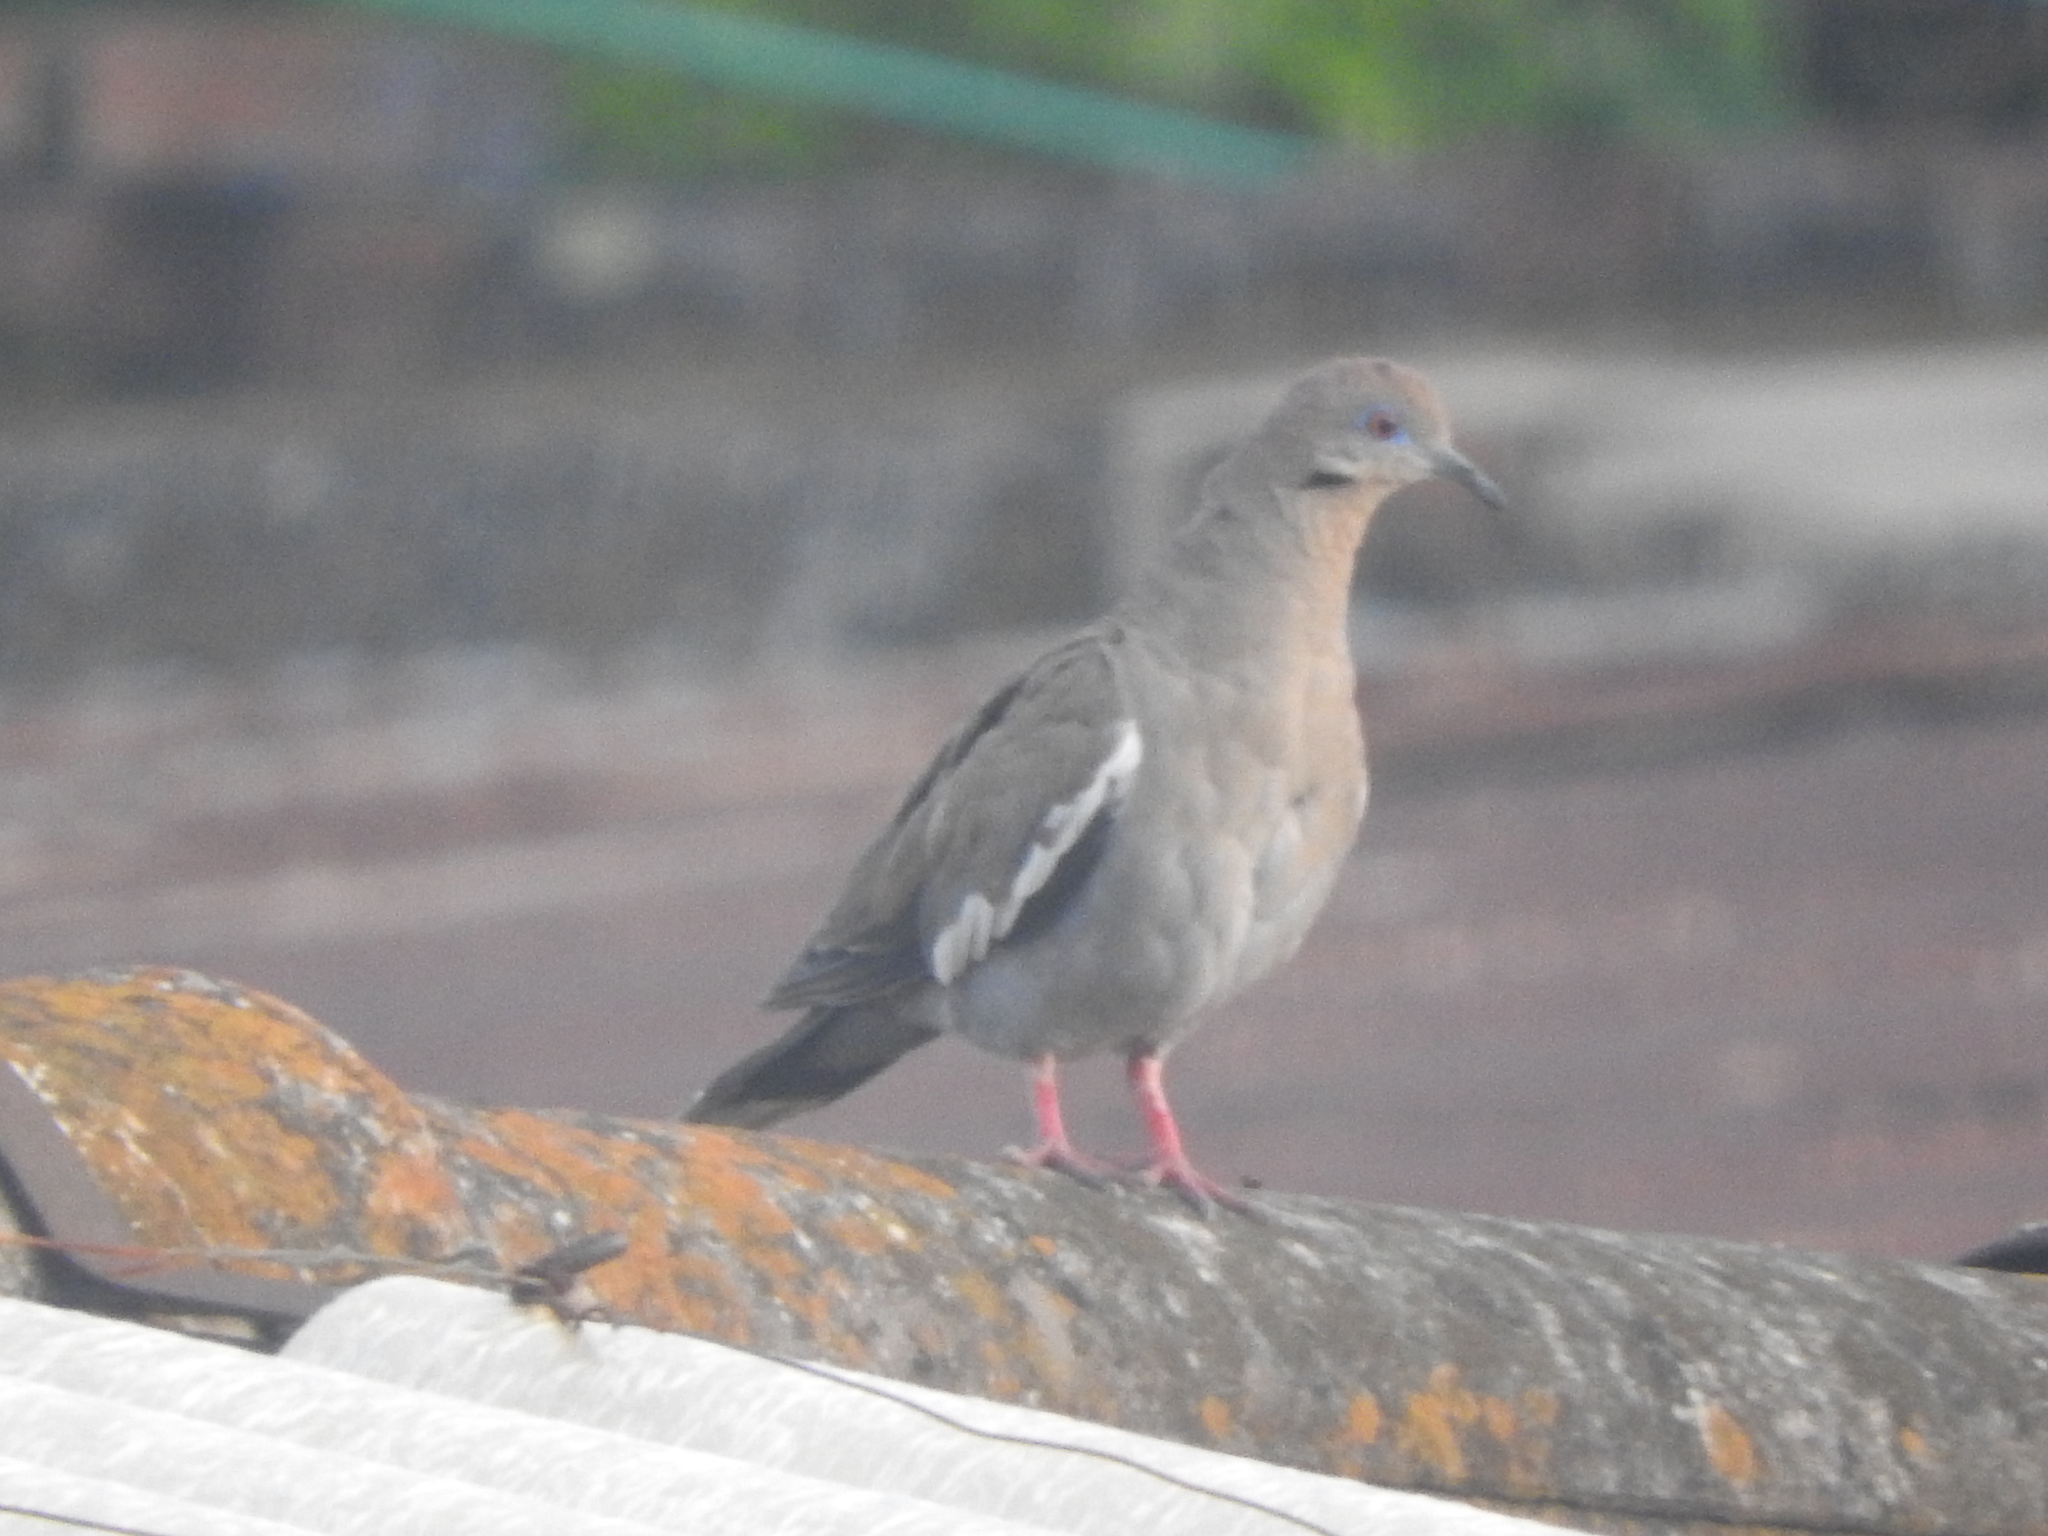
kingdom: Animalia
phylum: Chordata
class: Aves
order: Columbiformes
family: Columbidae
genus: Zenaida
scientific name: Zenaida asiatica
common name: White-winged dove
